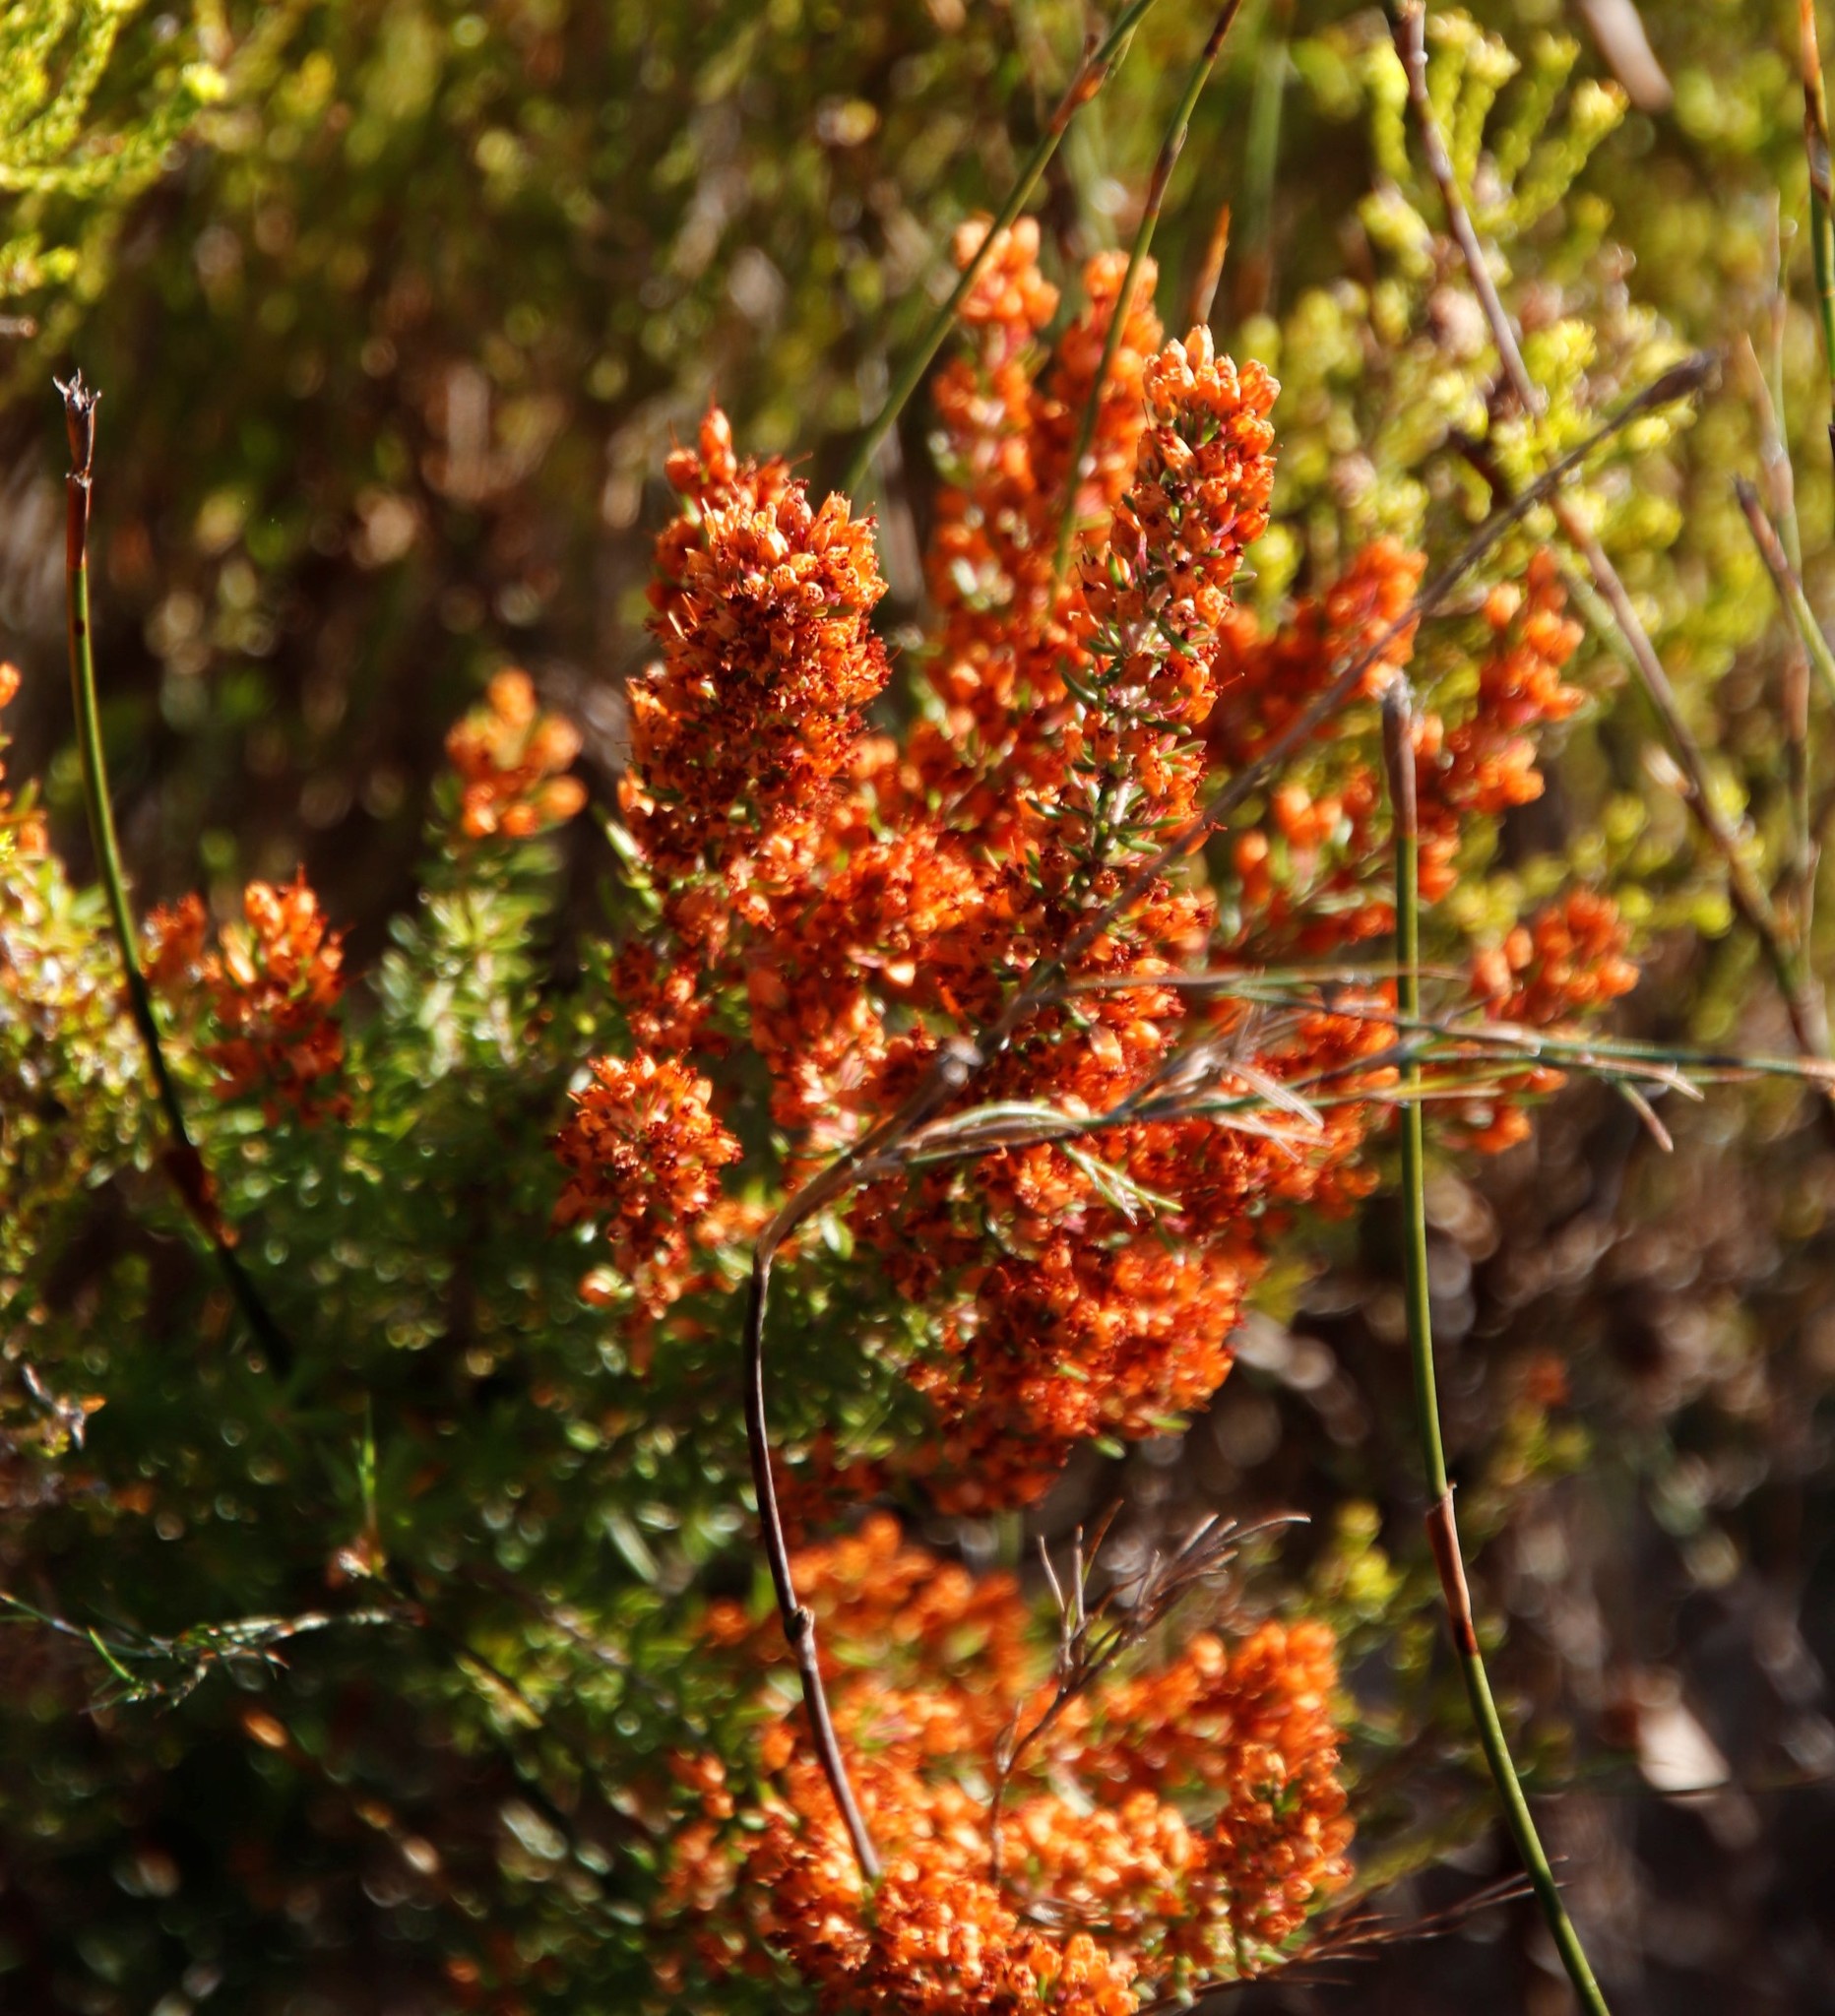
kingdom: Plantae
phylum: Tracheophyta
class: Magnoliopsida
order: Ericales
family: Ericaceae
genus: Erica
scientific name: Erica nudiflora
